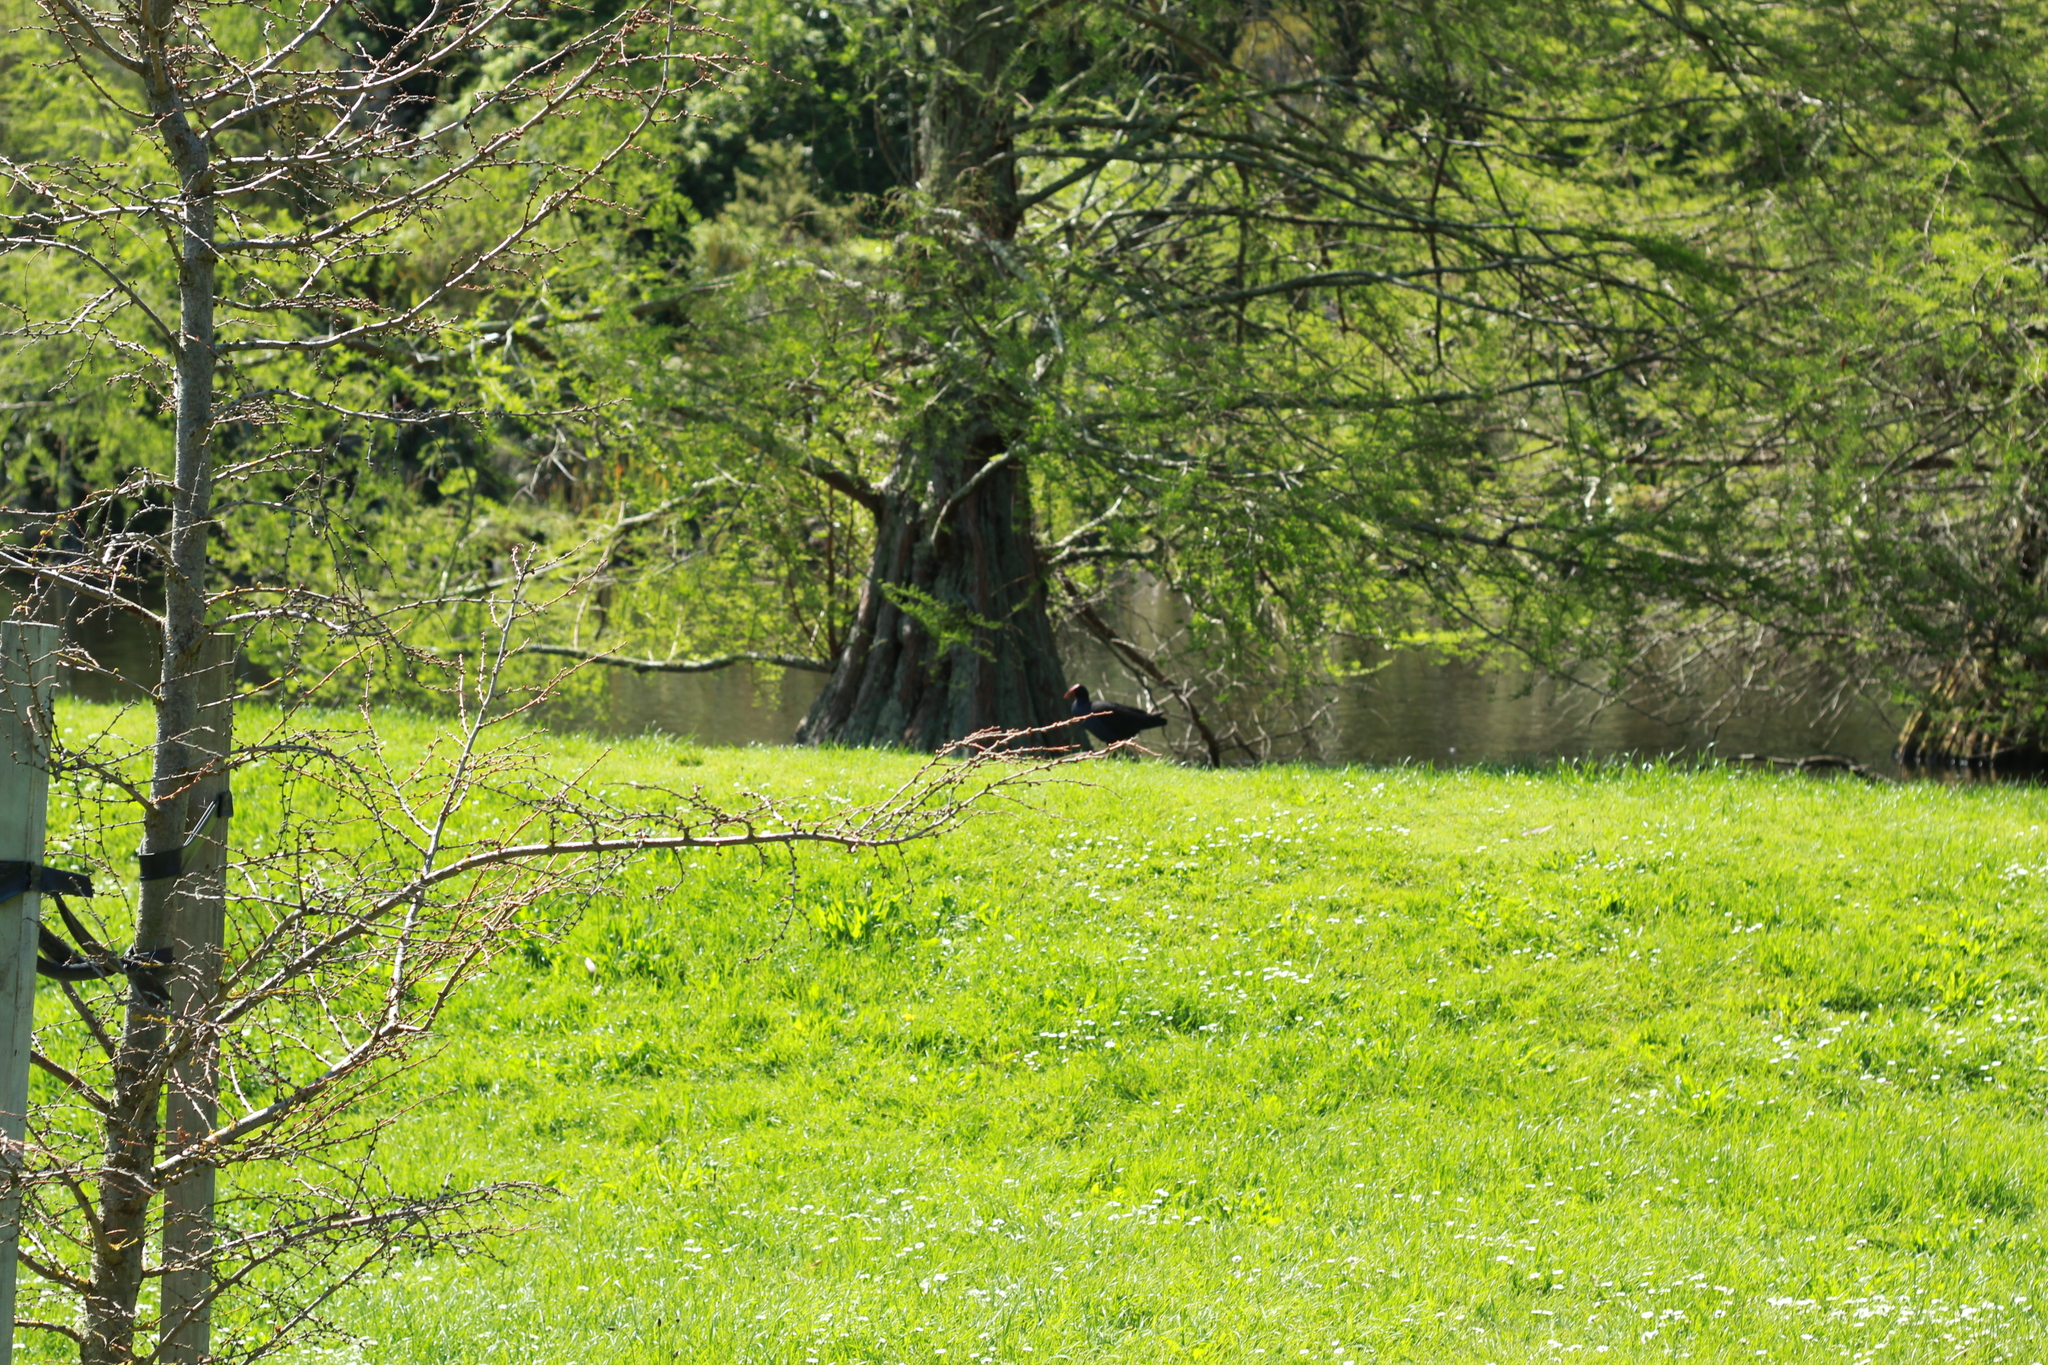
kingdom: Animalia
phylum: Chordata
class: Aves
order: Gruiformes
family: Rallidae
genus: Porphyrio
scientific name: Porphyrio melanotus
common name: Australasian swamphen
